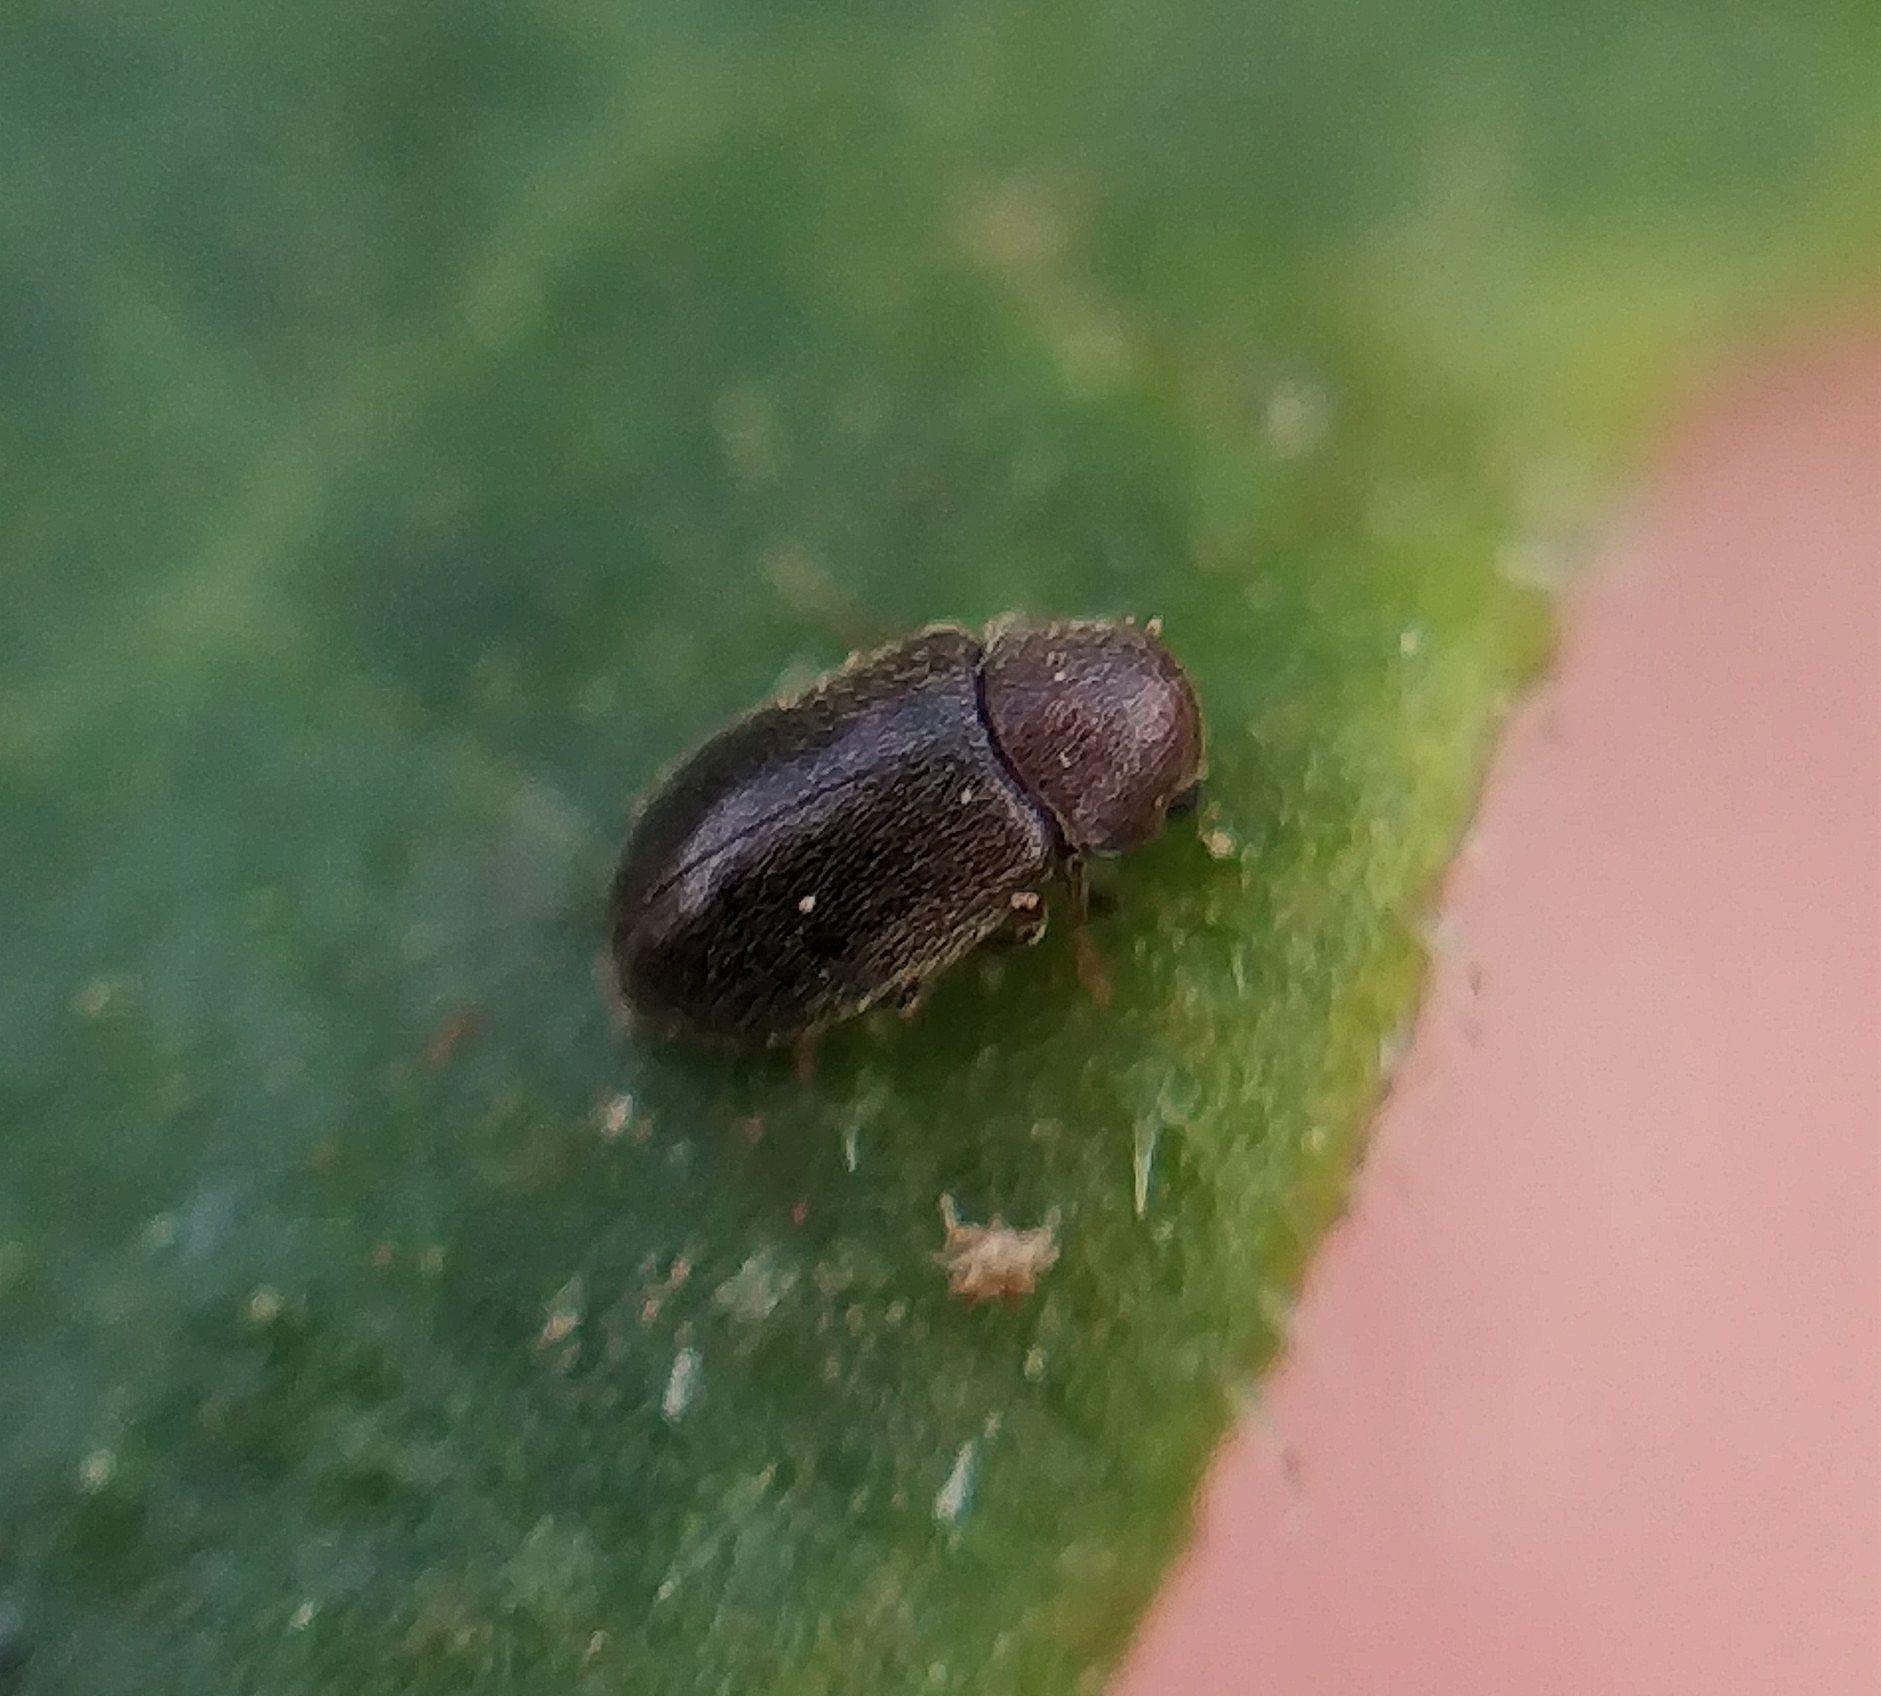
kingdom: Animalia
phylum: Arthropoda
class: Insecta
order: Coleoptera
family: Anobiidae
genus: Ozognathus
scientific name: Ozognathus cornutus
